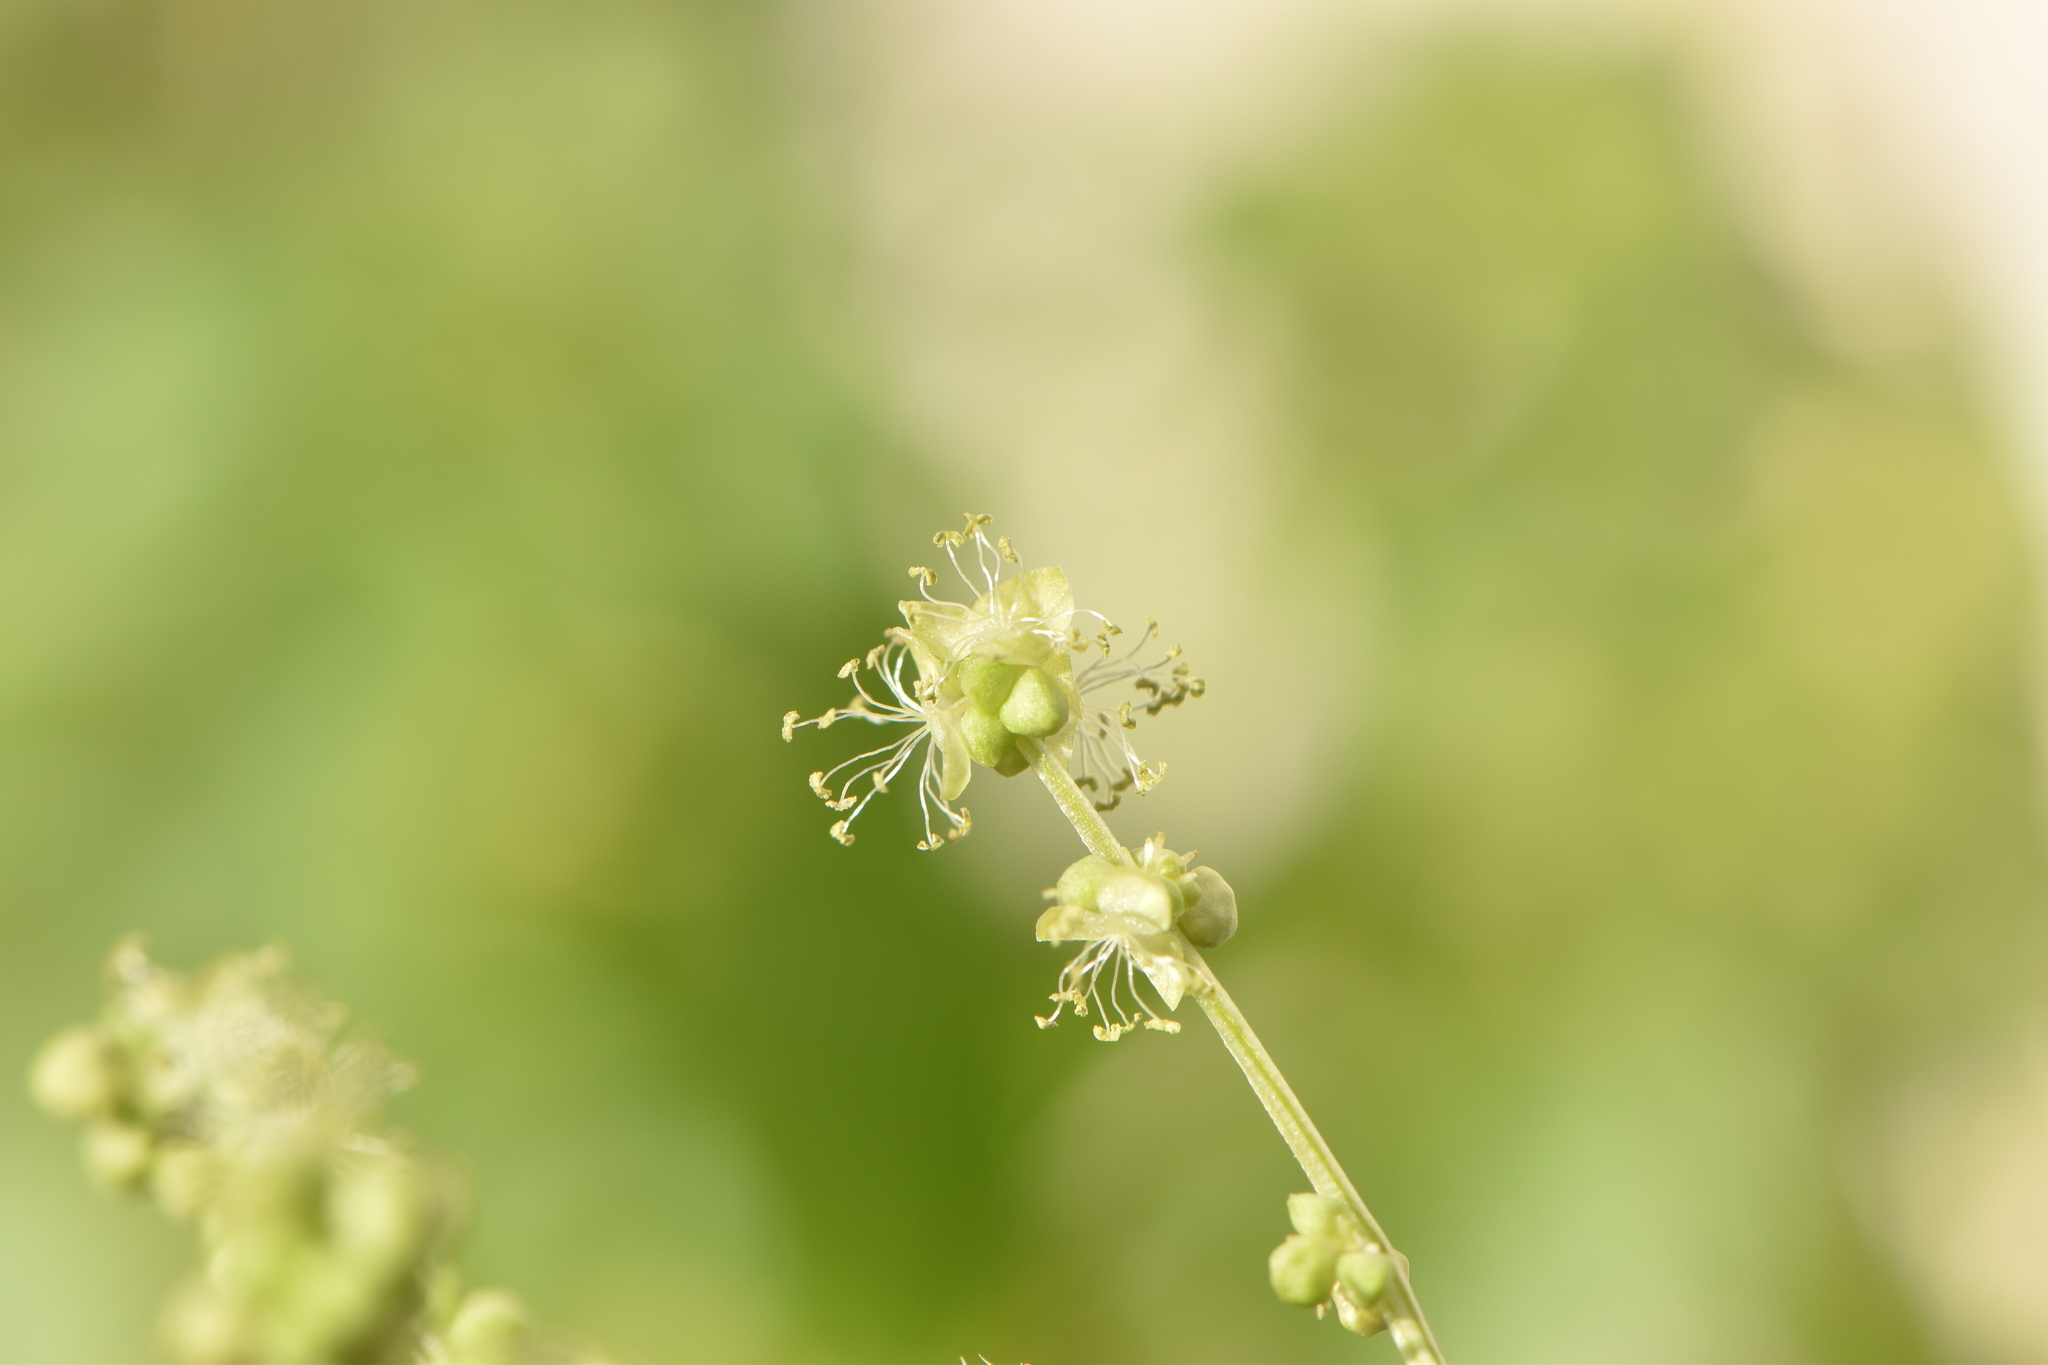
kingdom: Plantae
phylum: Tracheophyta
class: Magnoliopsida
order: Malpighiales
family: Euphorbiaceae
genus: Mercurialis
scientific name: Mercurialis annua
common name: Annual mercury
